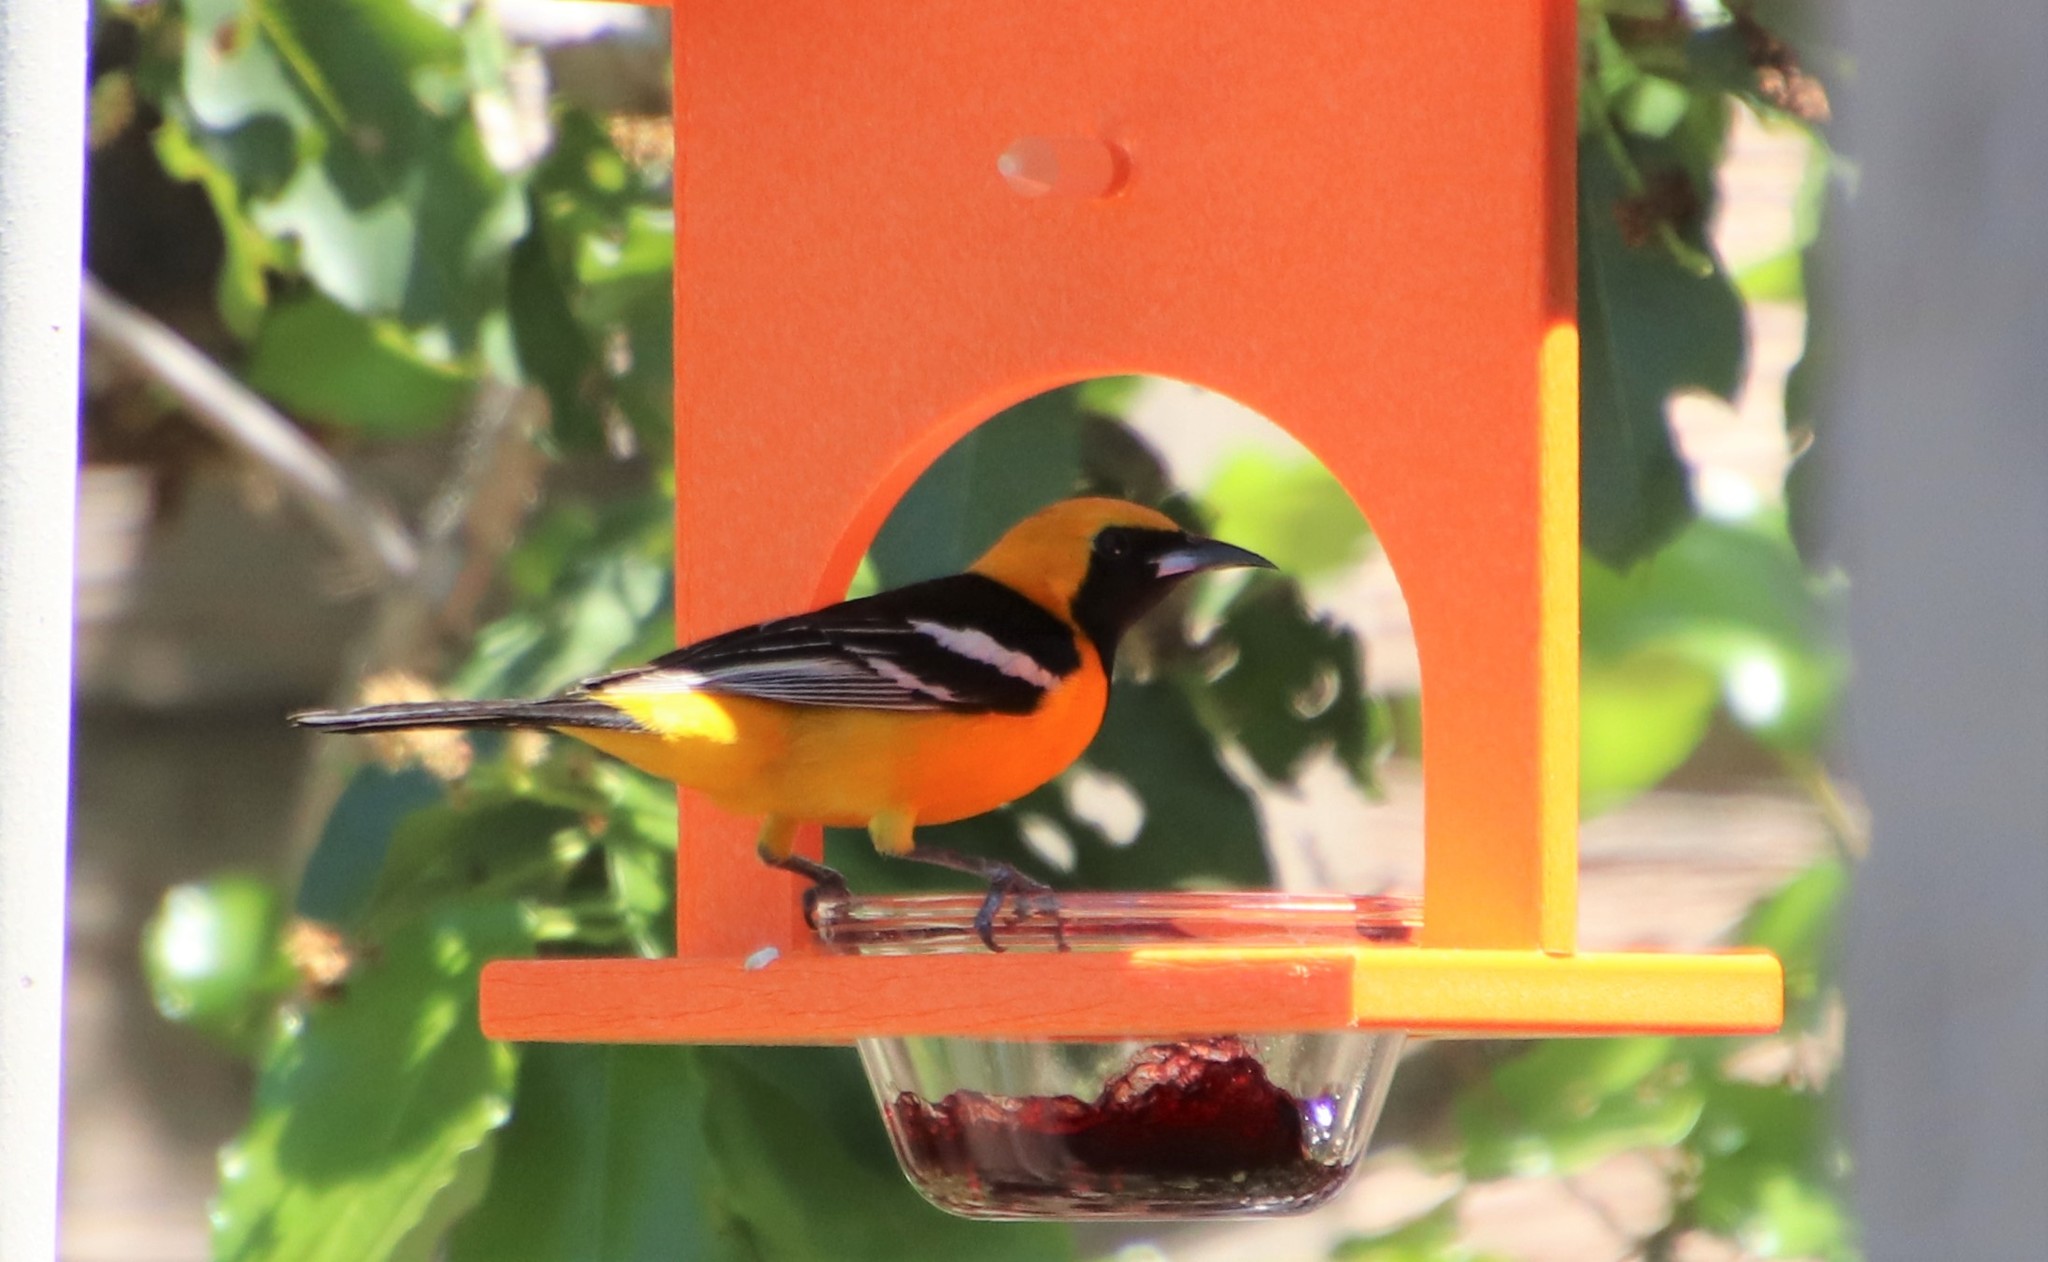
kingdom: Animalia
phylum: Chordata
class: Aves
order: Passeriformes
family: Icteridae
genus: Icterus
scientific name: Icterus cucullatus
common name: Hooded oriole
